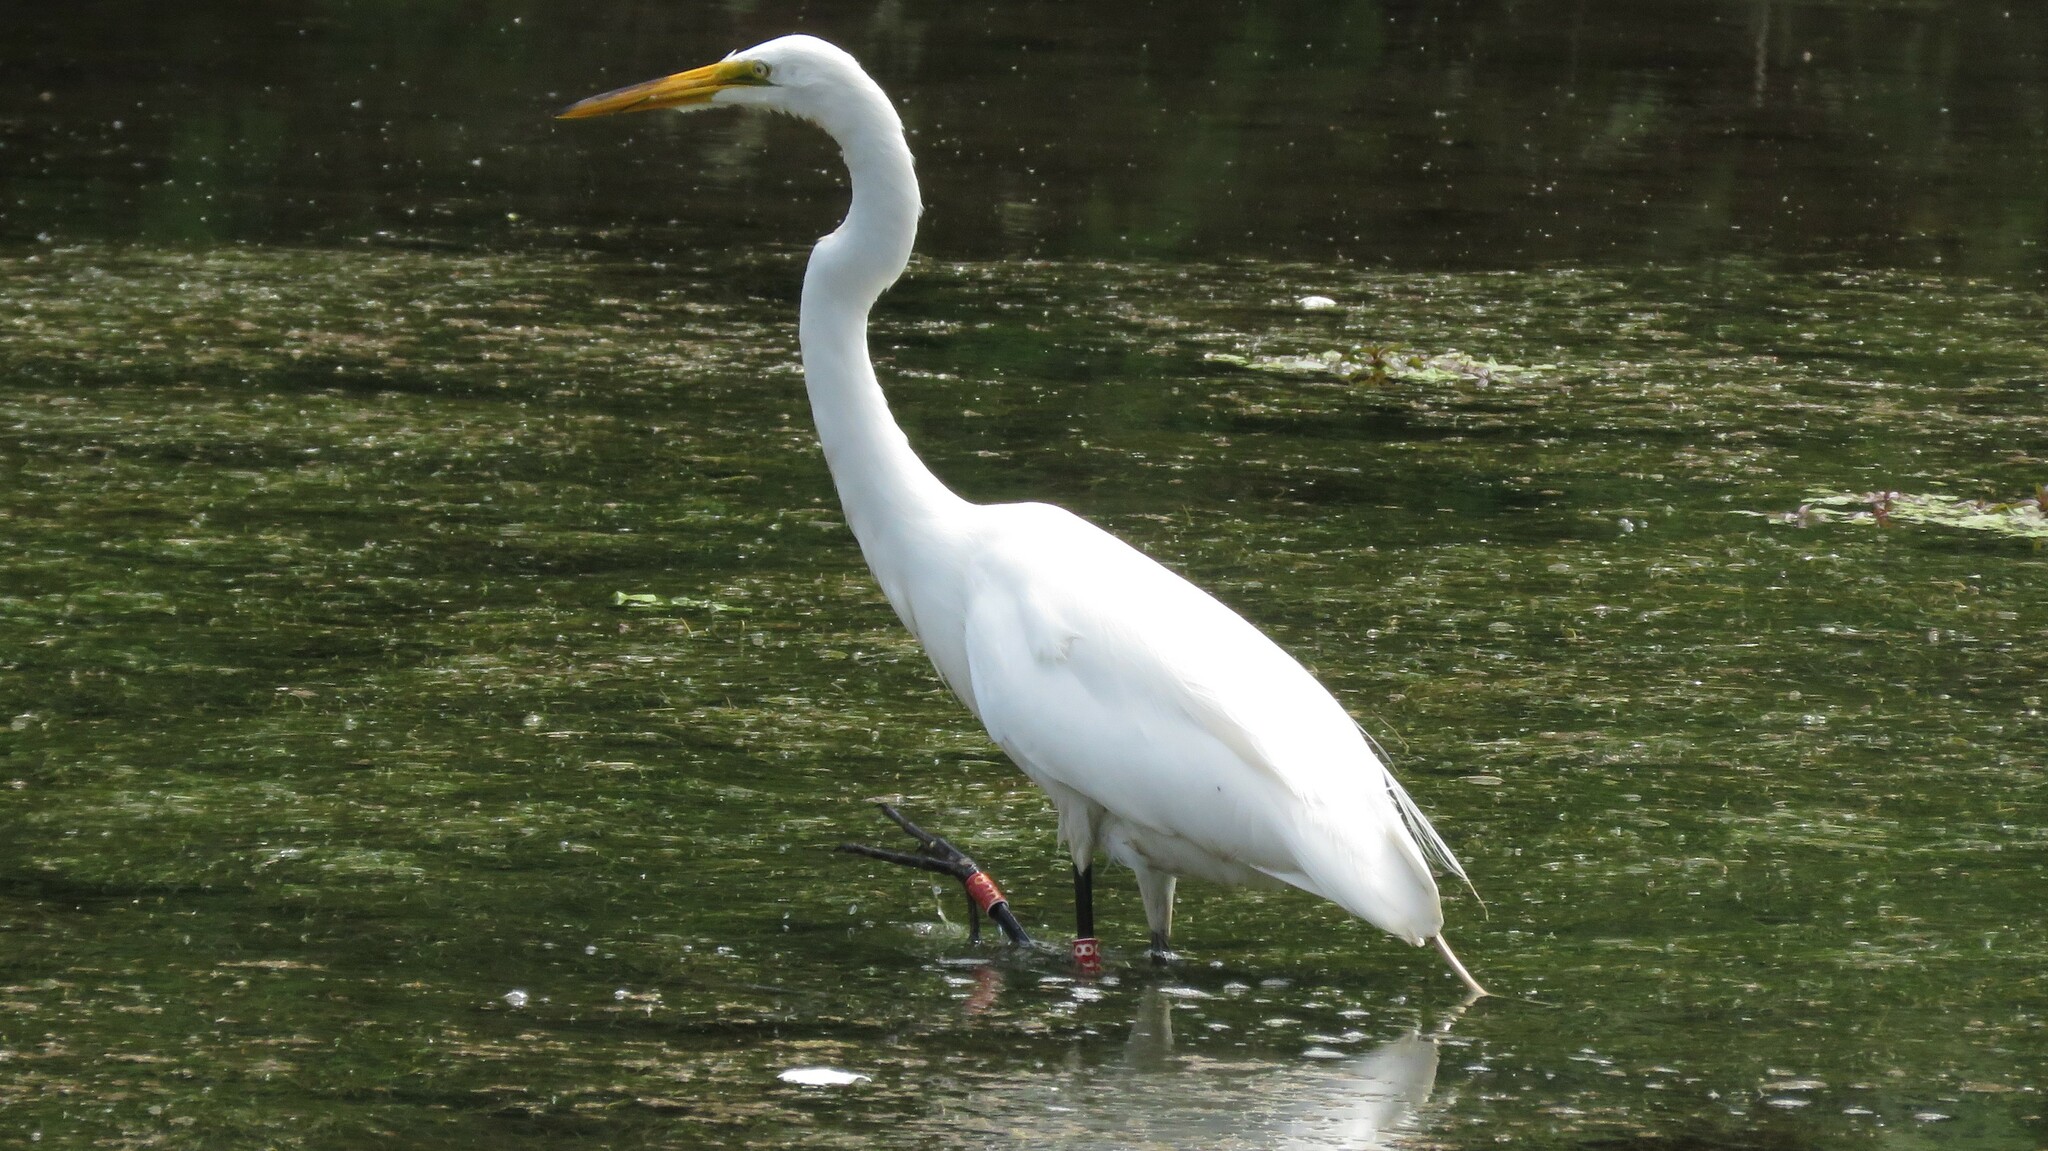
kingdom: Animalia
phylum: Chordata
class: Aves
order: Pelecaniformes
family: Ardeidae
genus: Ardea
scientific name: Ardea alba
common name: Great egret
